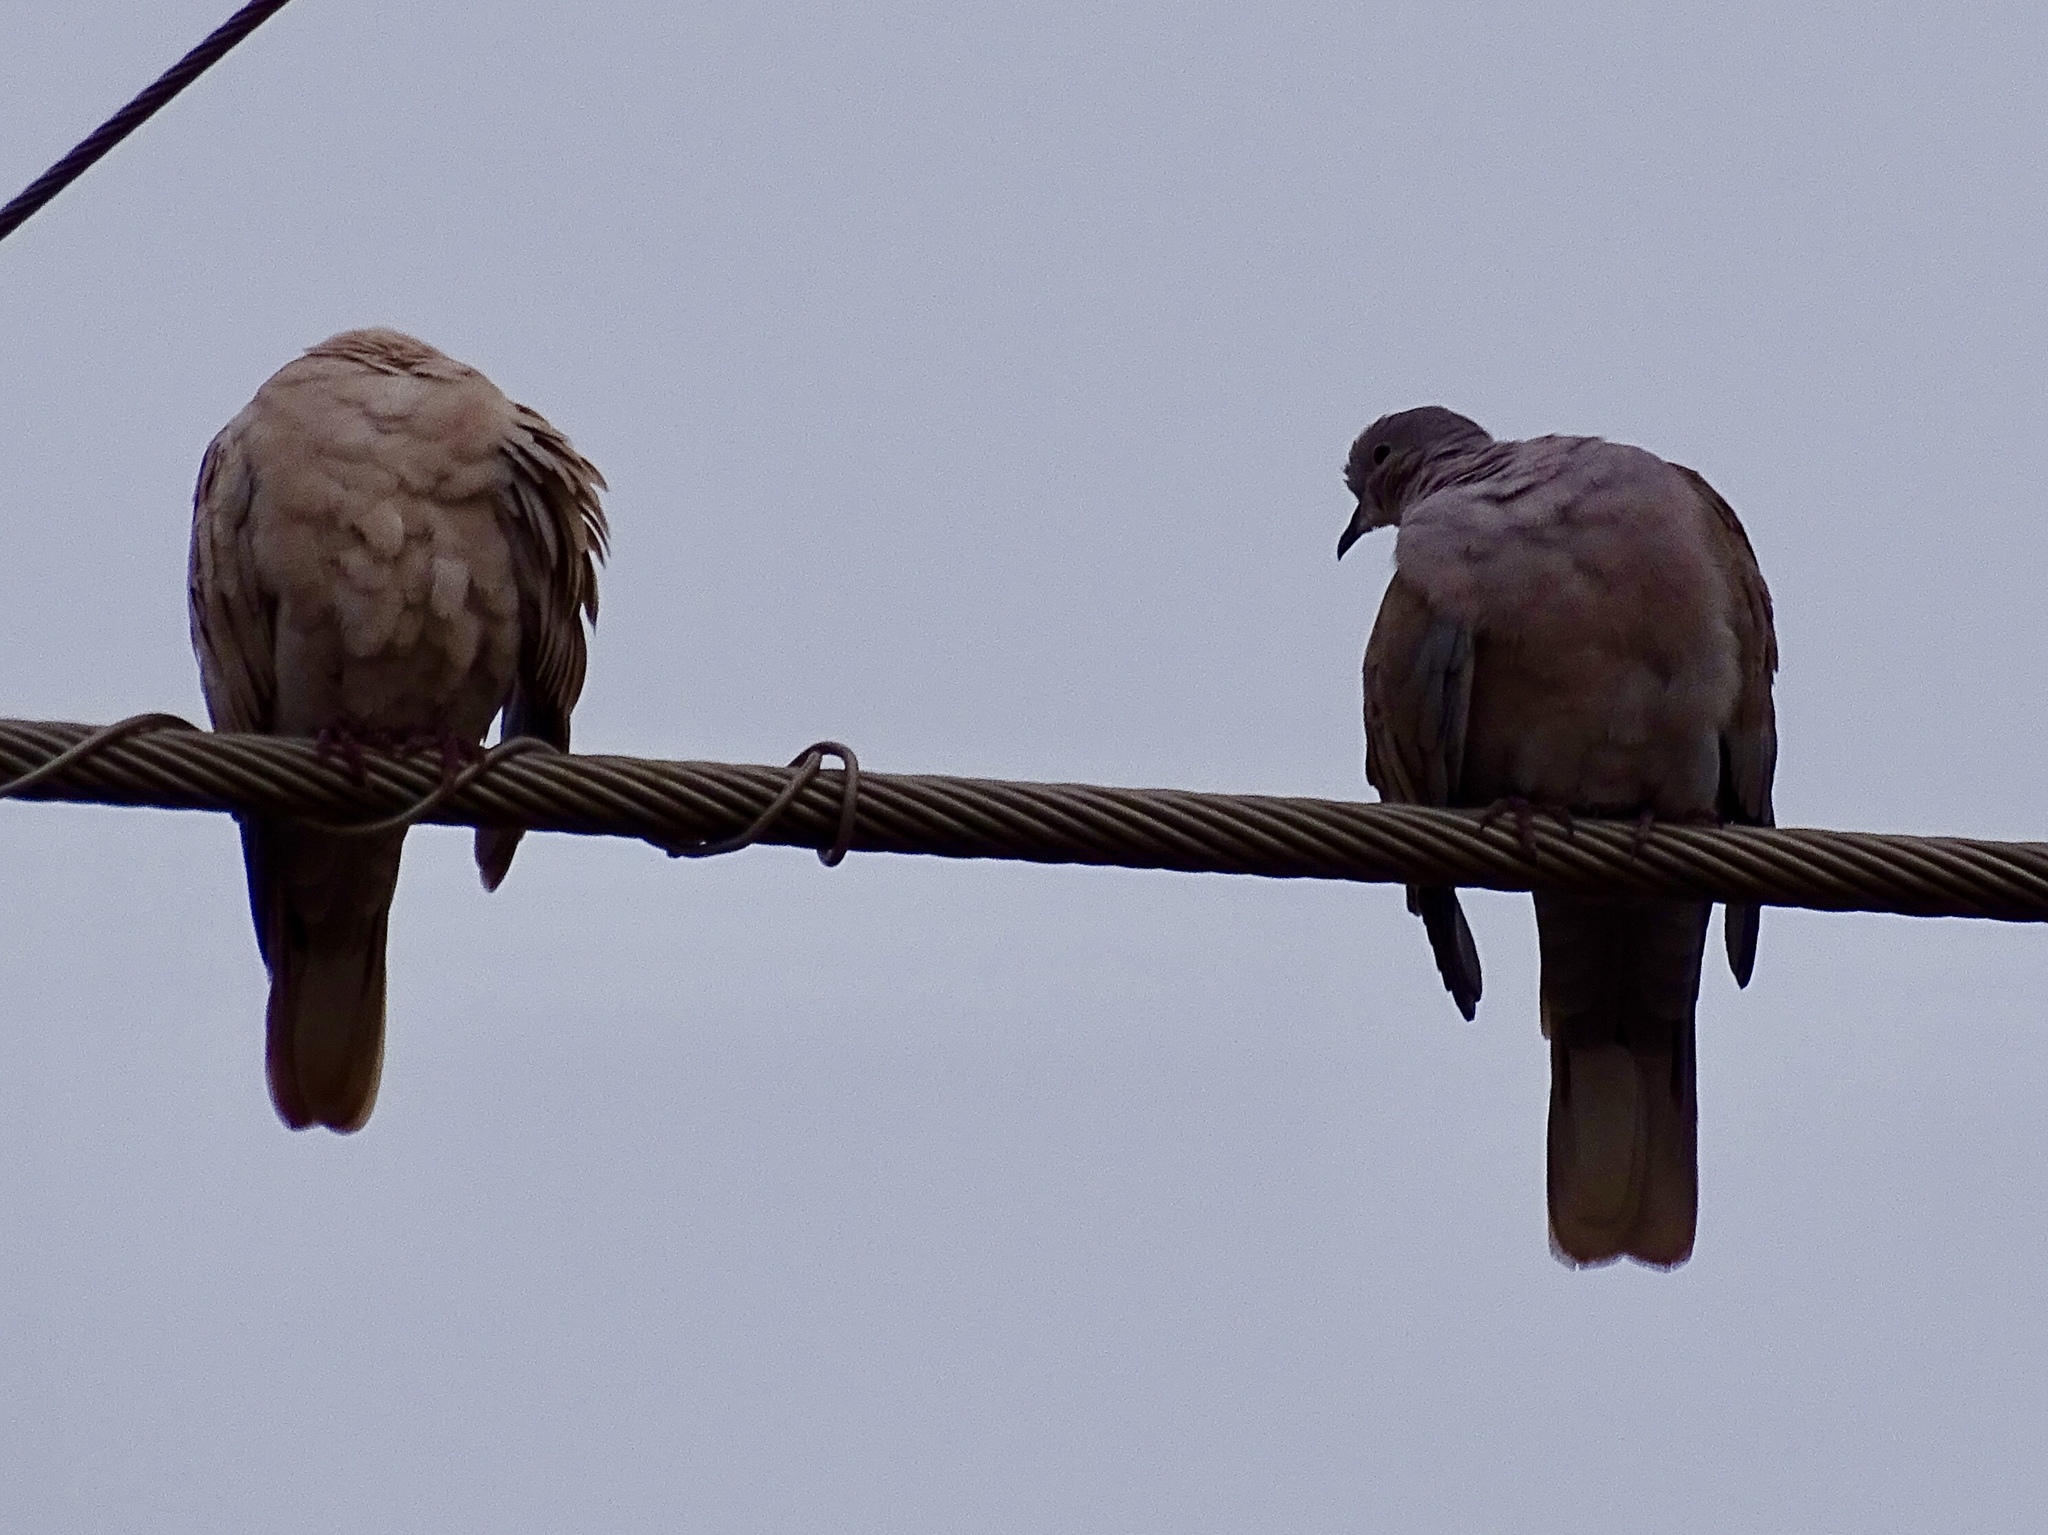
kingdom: Animalia
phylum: Chordata
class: Aves
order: Columbiformes
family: Columbidae
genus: Streptopelia
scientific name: Streptopelia decaocto
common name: Eurasian collared dove
